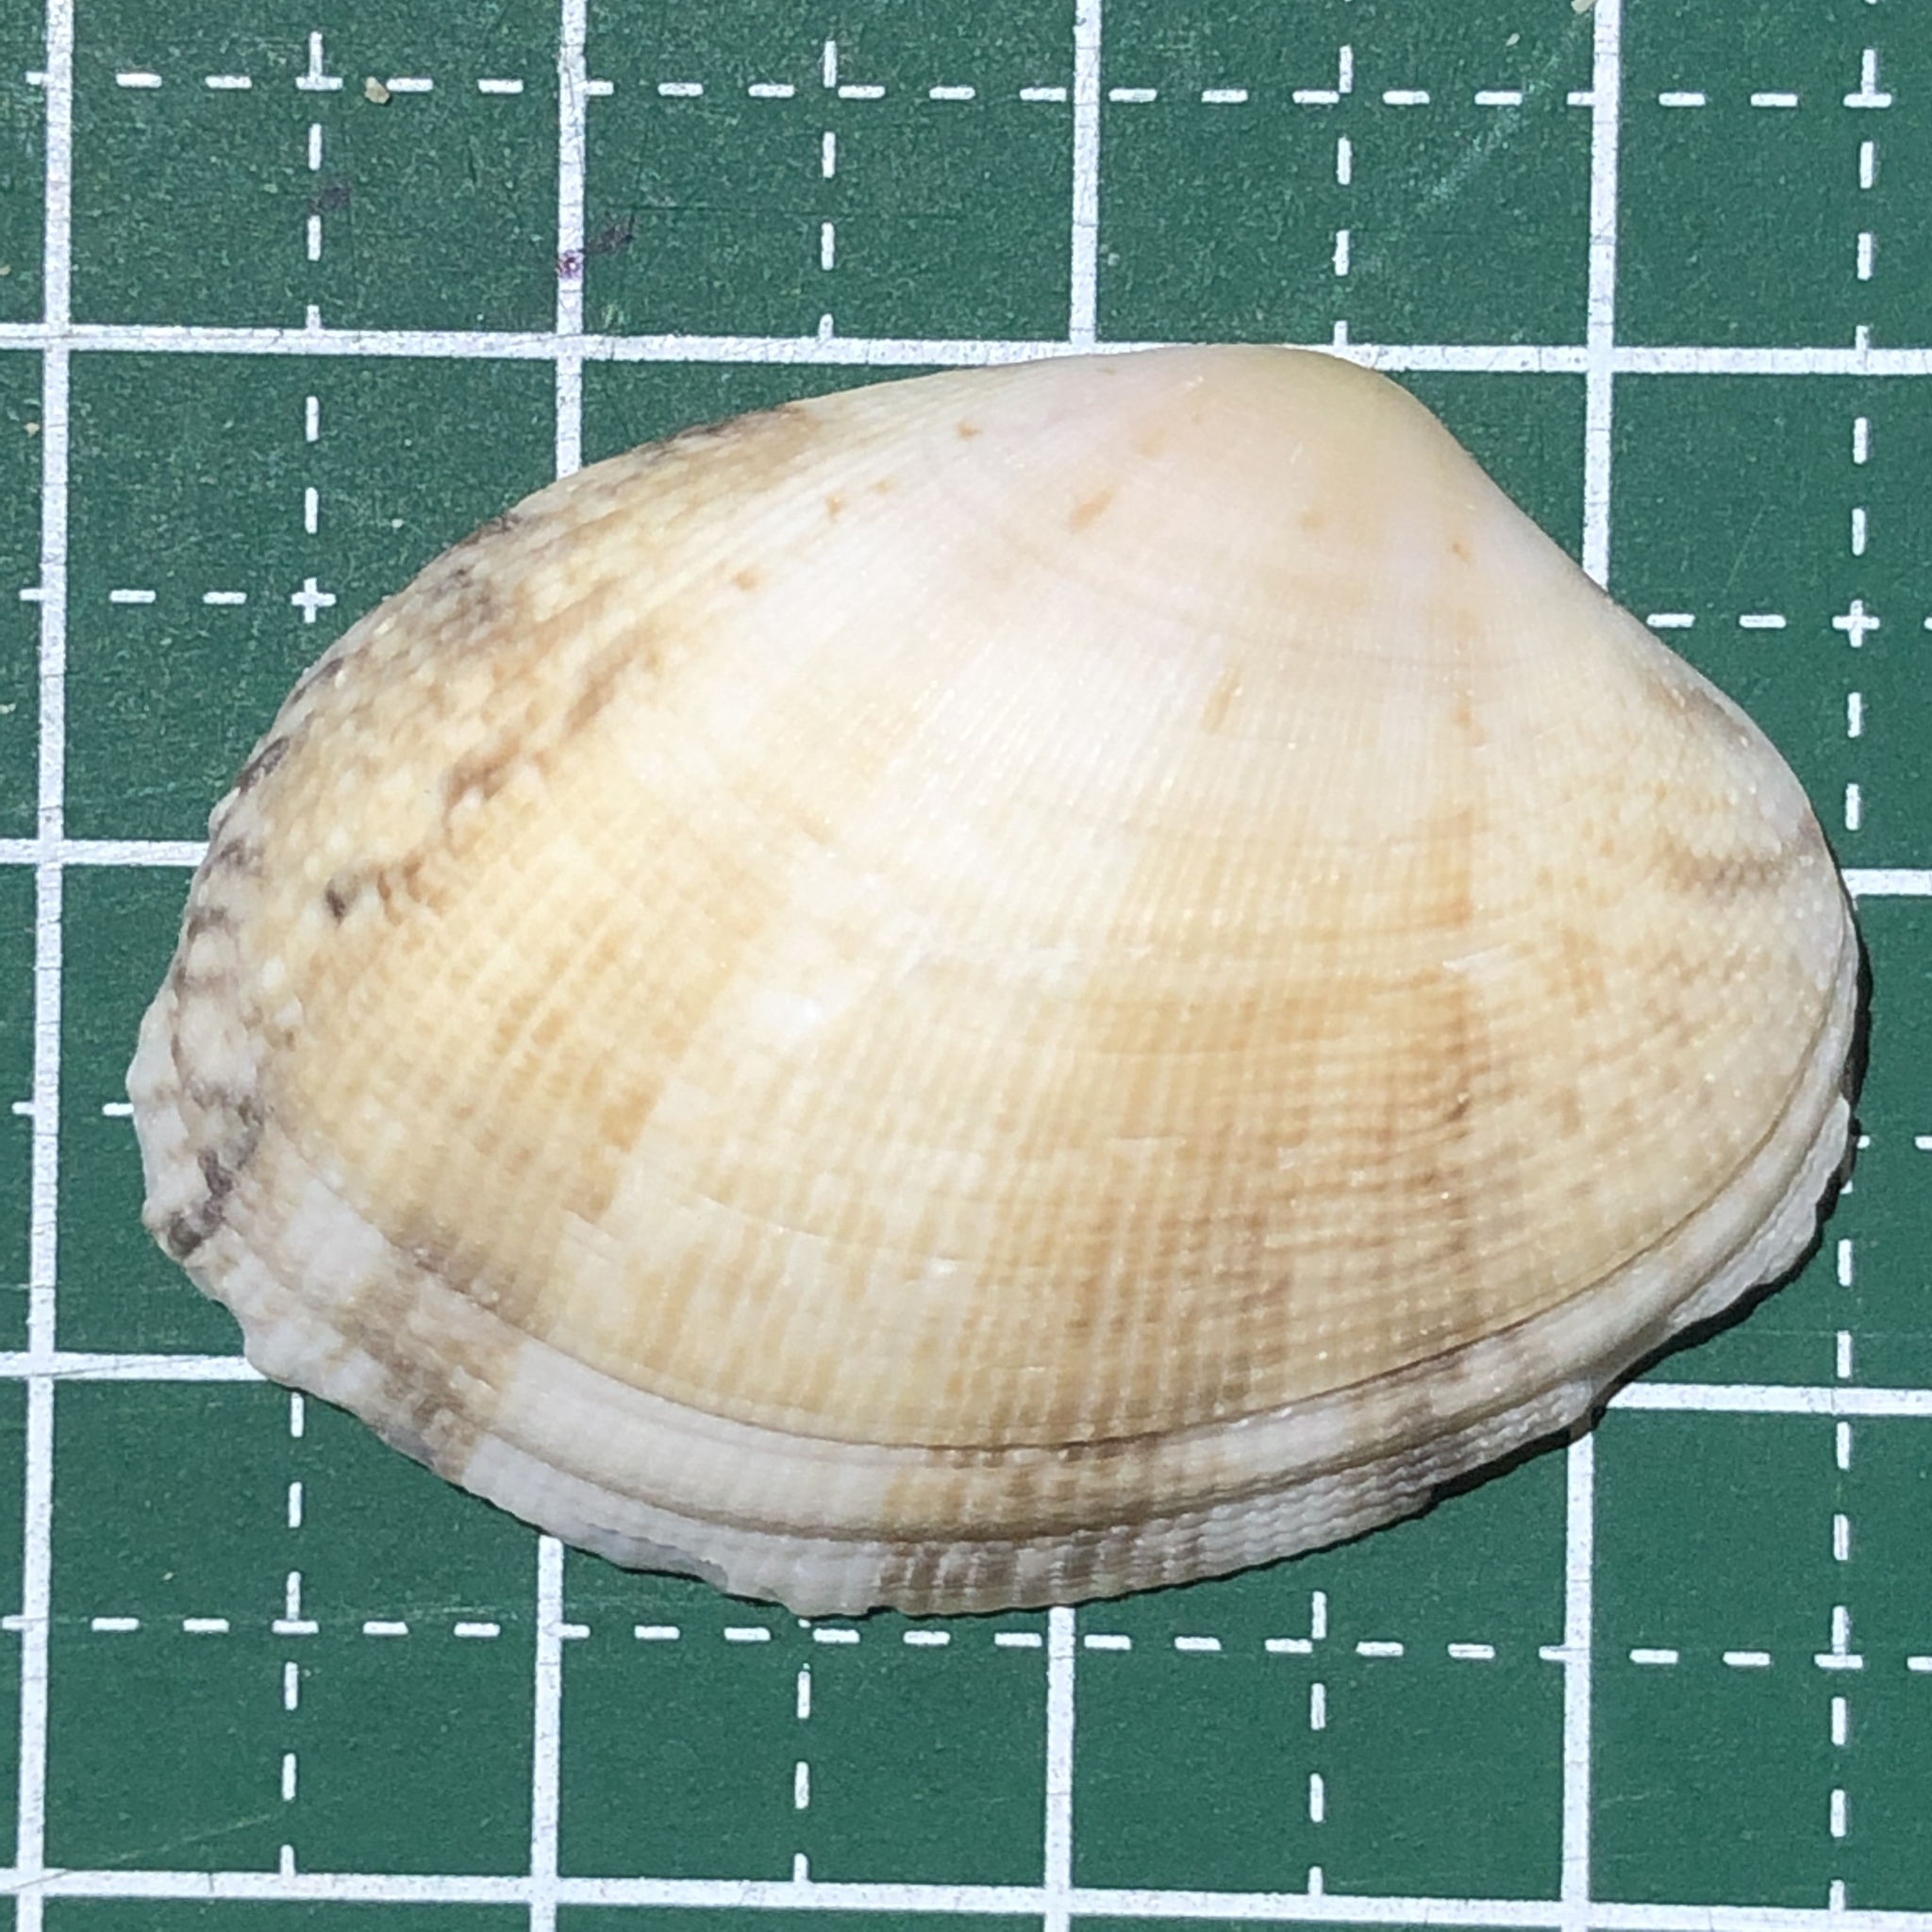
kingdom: Animalia
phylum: Mollusca
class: Bivalvia
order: Venerida
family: Veneridae
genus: Venerupis
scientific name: Venerupis aspera
